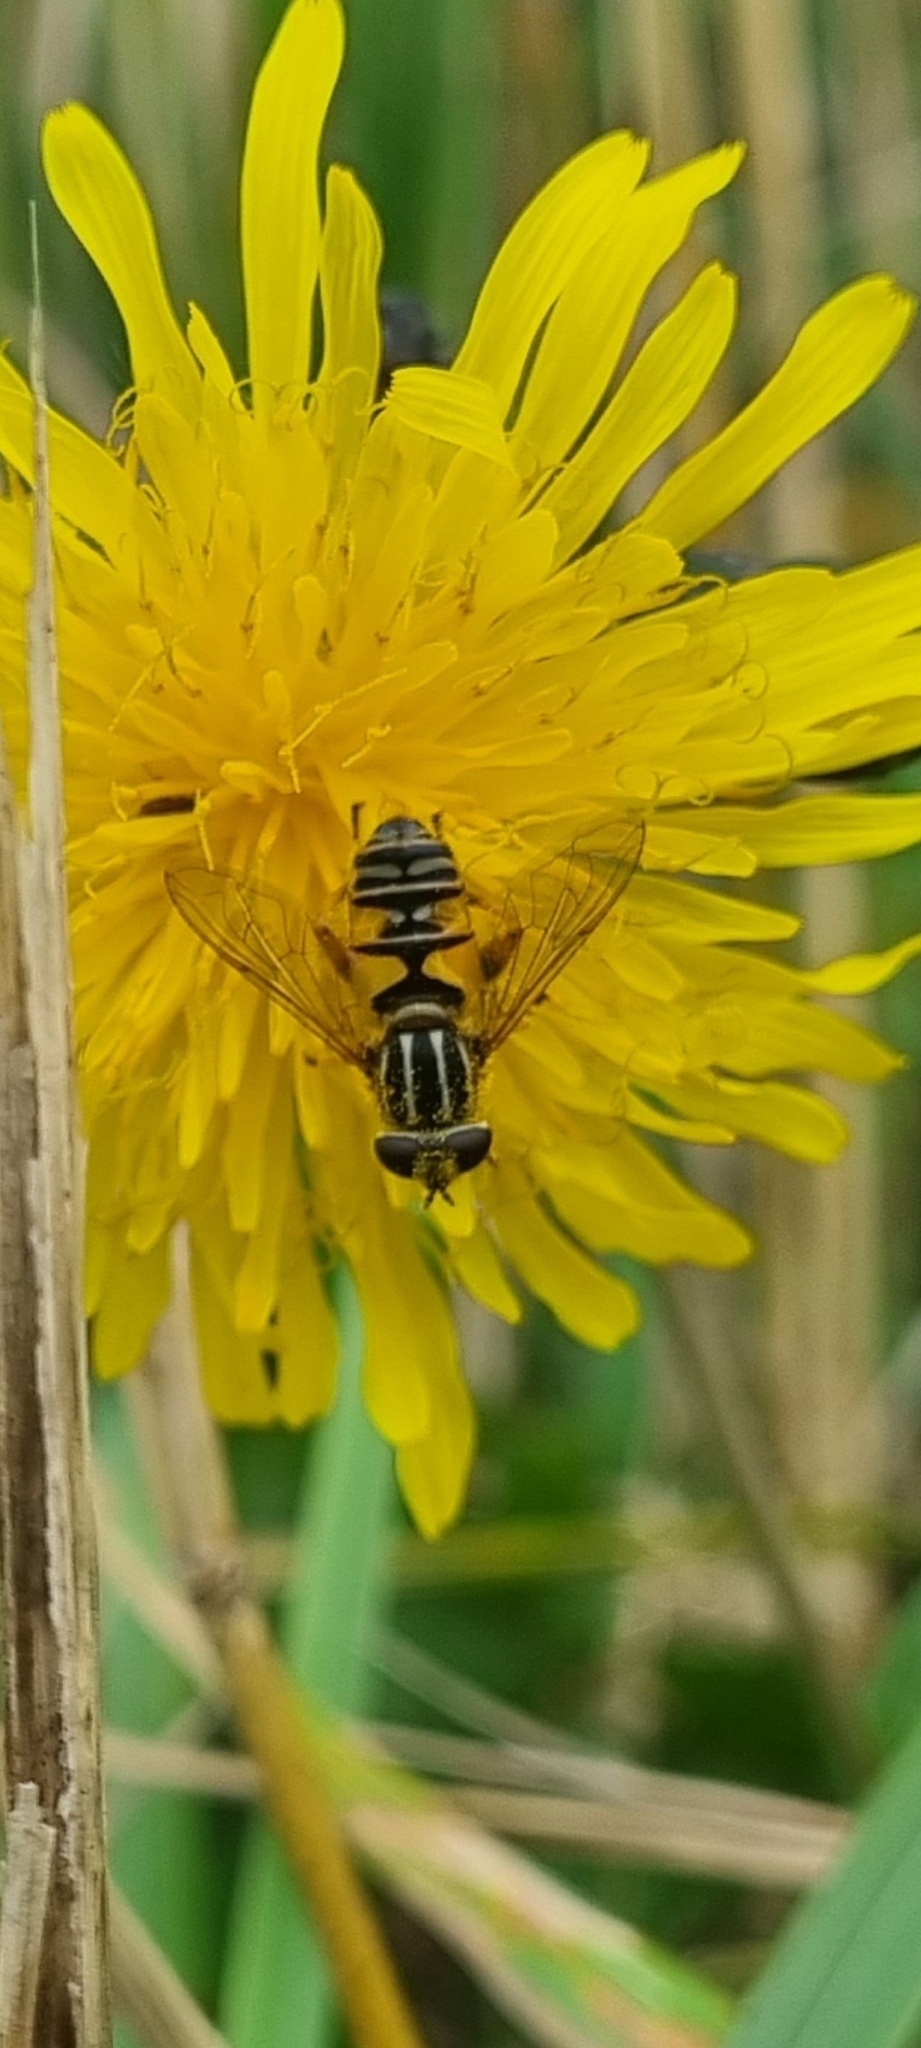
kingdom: Animalia
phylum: Arthropoda
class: Insecta
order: Diptera
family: Syrphidae
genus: Helophilus
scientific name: Helophilus pendulus
